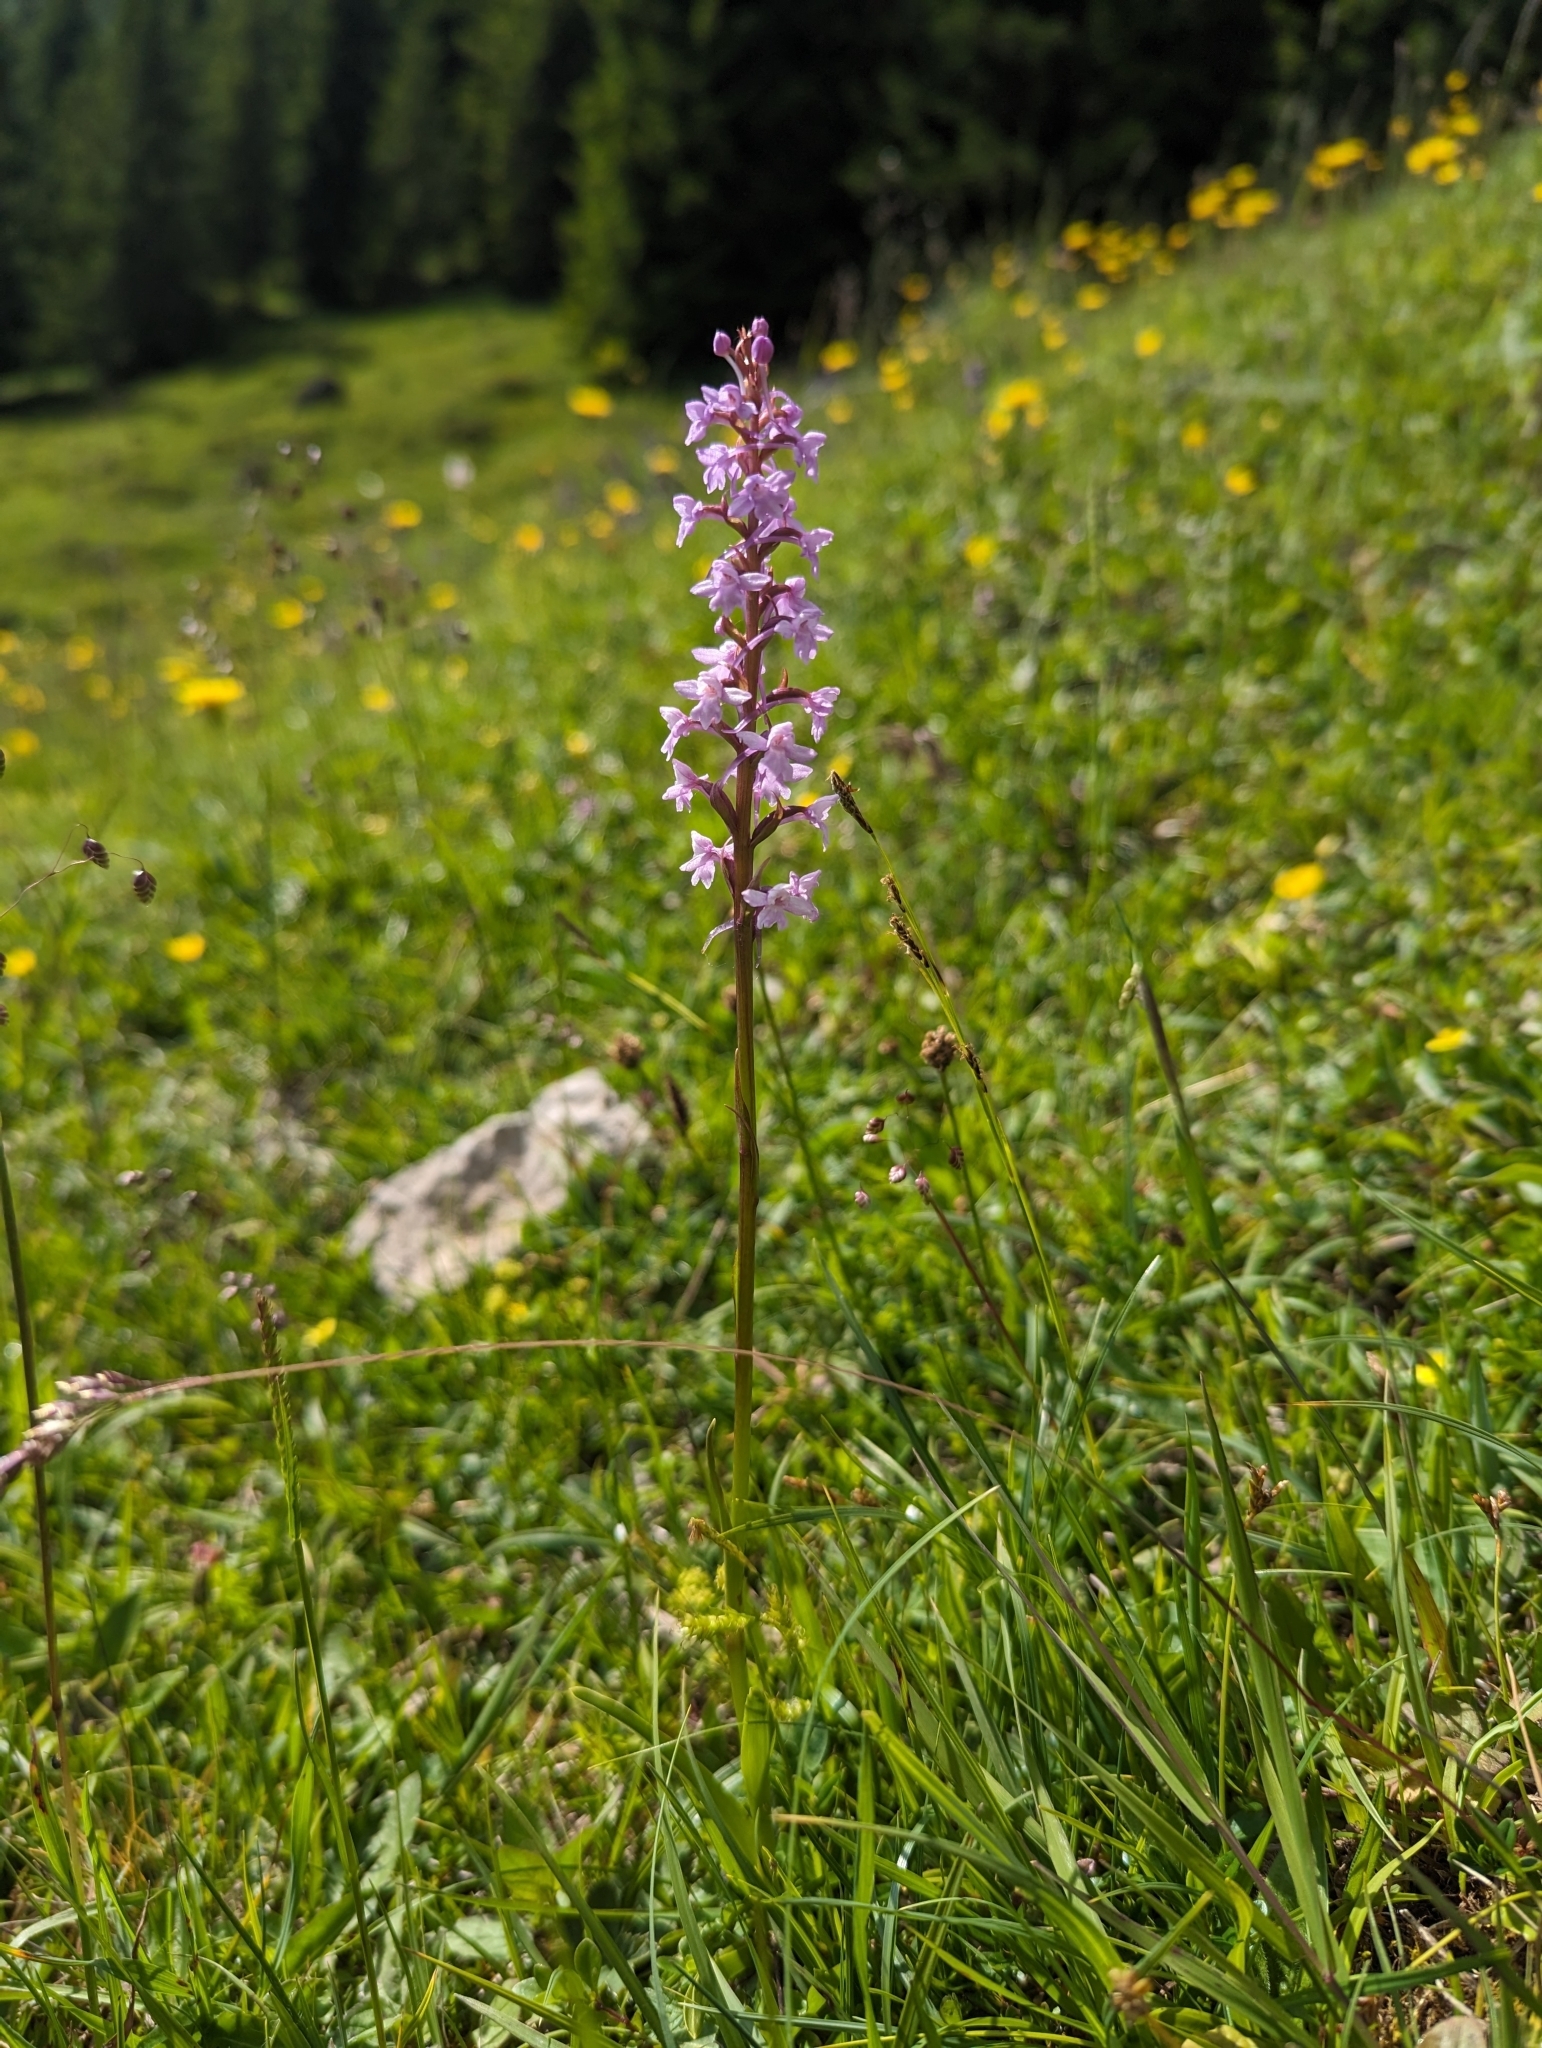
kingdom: Plantae
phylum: Tracheophyta
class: Liliopsida
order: Asparagales
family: Orchidaceae
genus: Gymnadenia
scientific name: Gymnadenia conopsea
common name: Fragrant orchid
